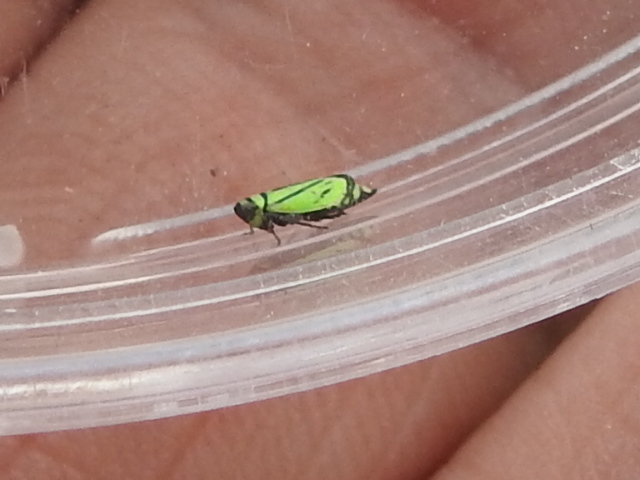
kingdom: Animalia
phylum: Arthropoda
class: Insecta
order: Hemiptera
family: Cicadellidae
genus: Stirellus
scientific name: Stirellus bicolor
